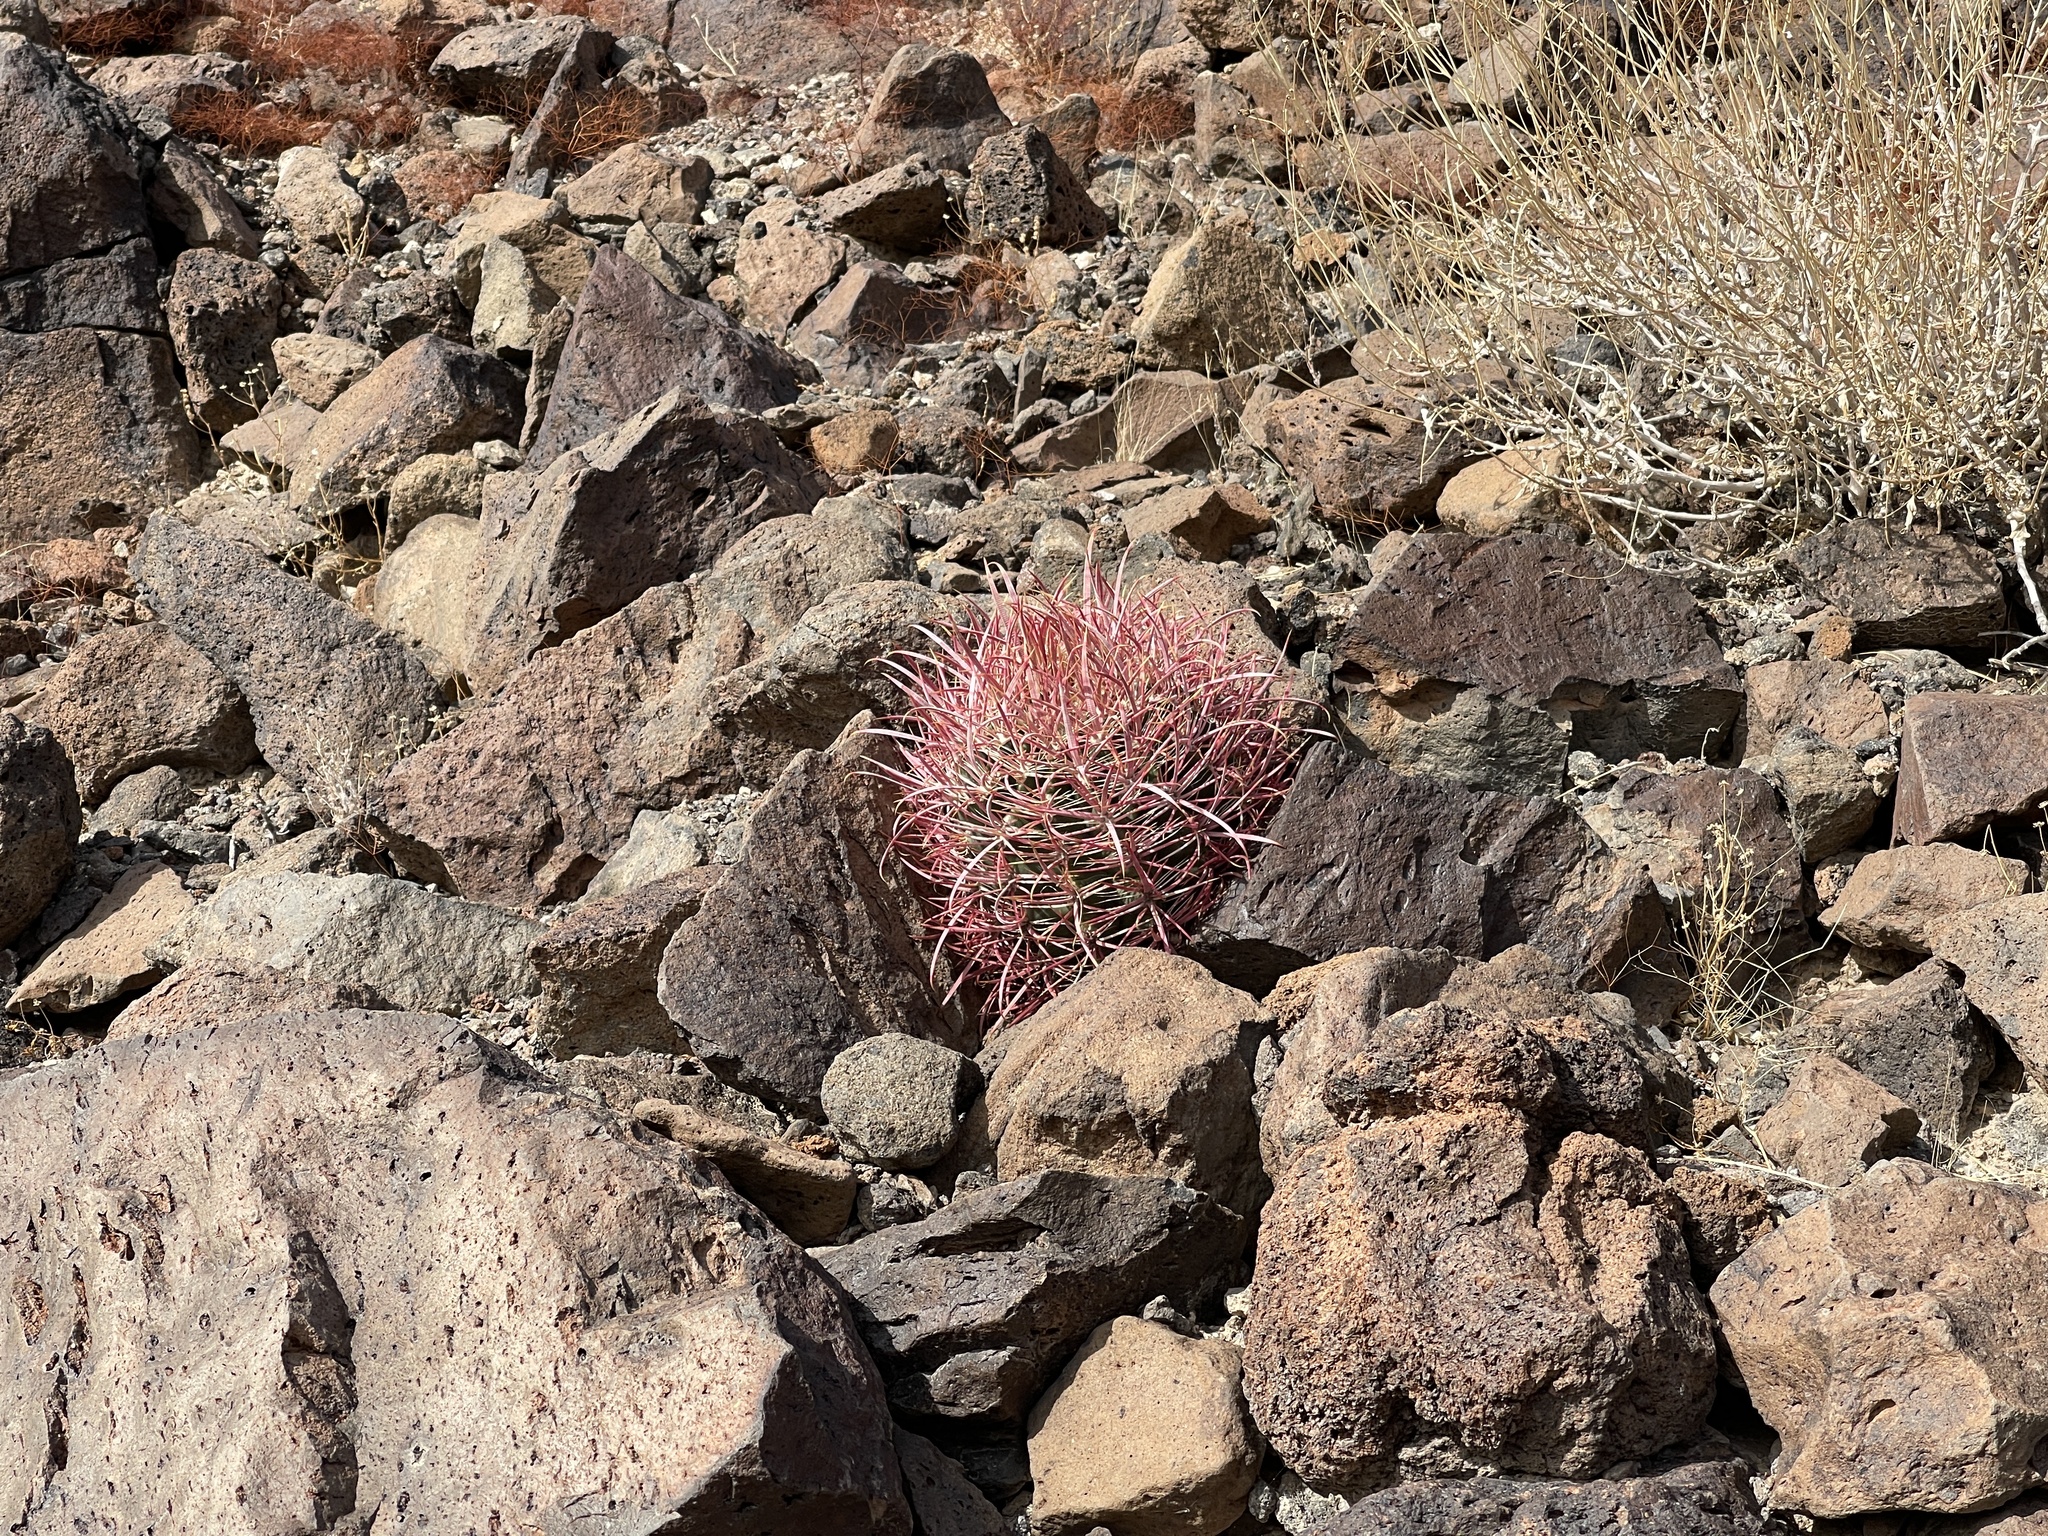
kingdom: Plantae
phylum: Tracheophyta
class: Magnoliopsida
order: Caryophyllales
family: Cactaceae
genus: Ferocactus
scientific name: Ferocactus cylindraceus
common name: California barrel cactus
